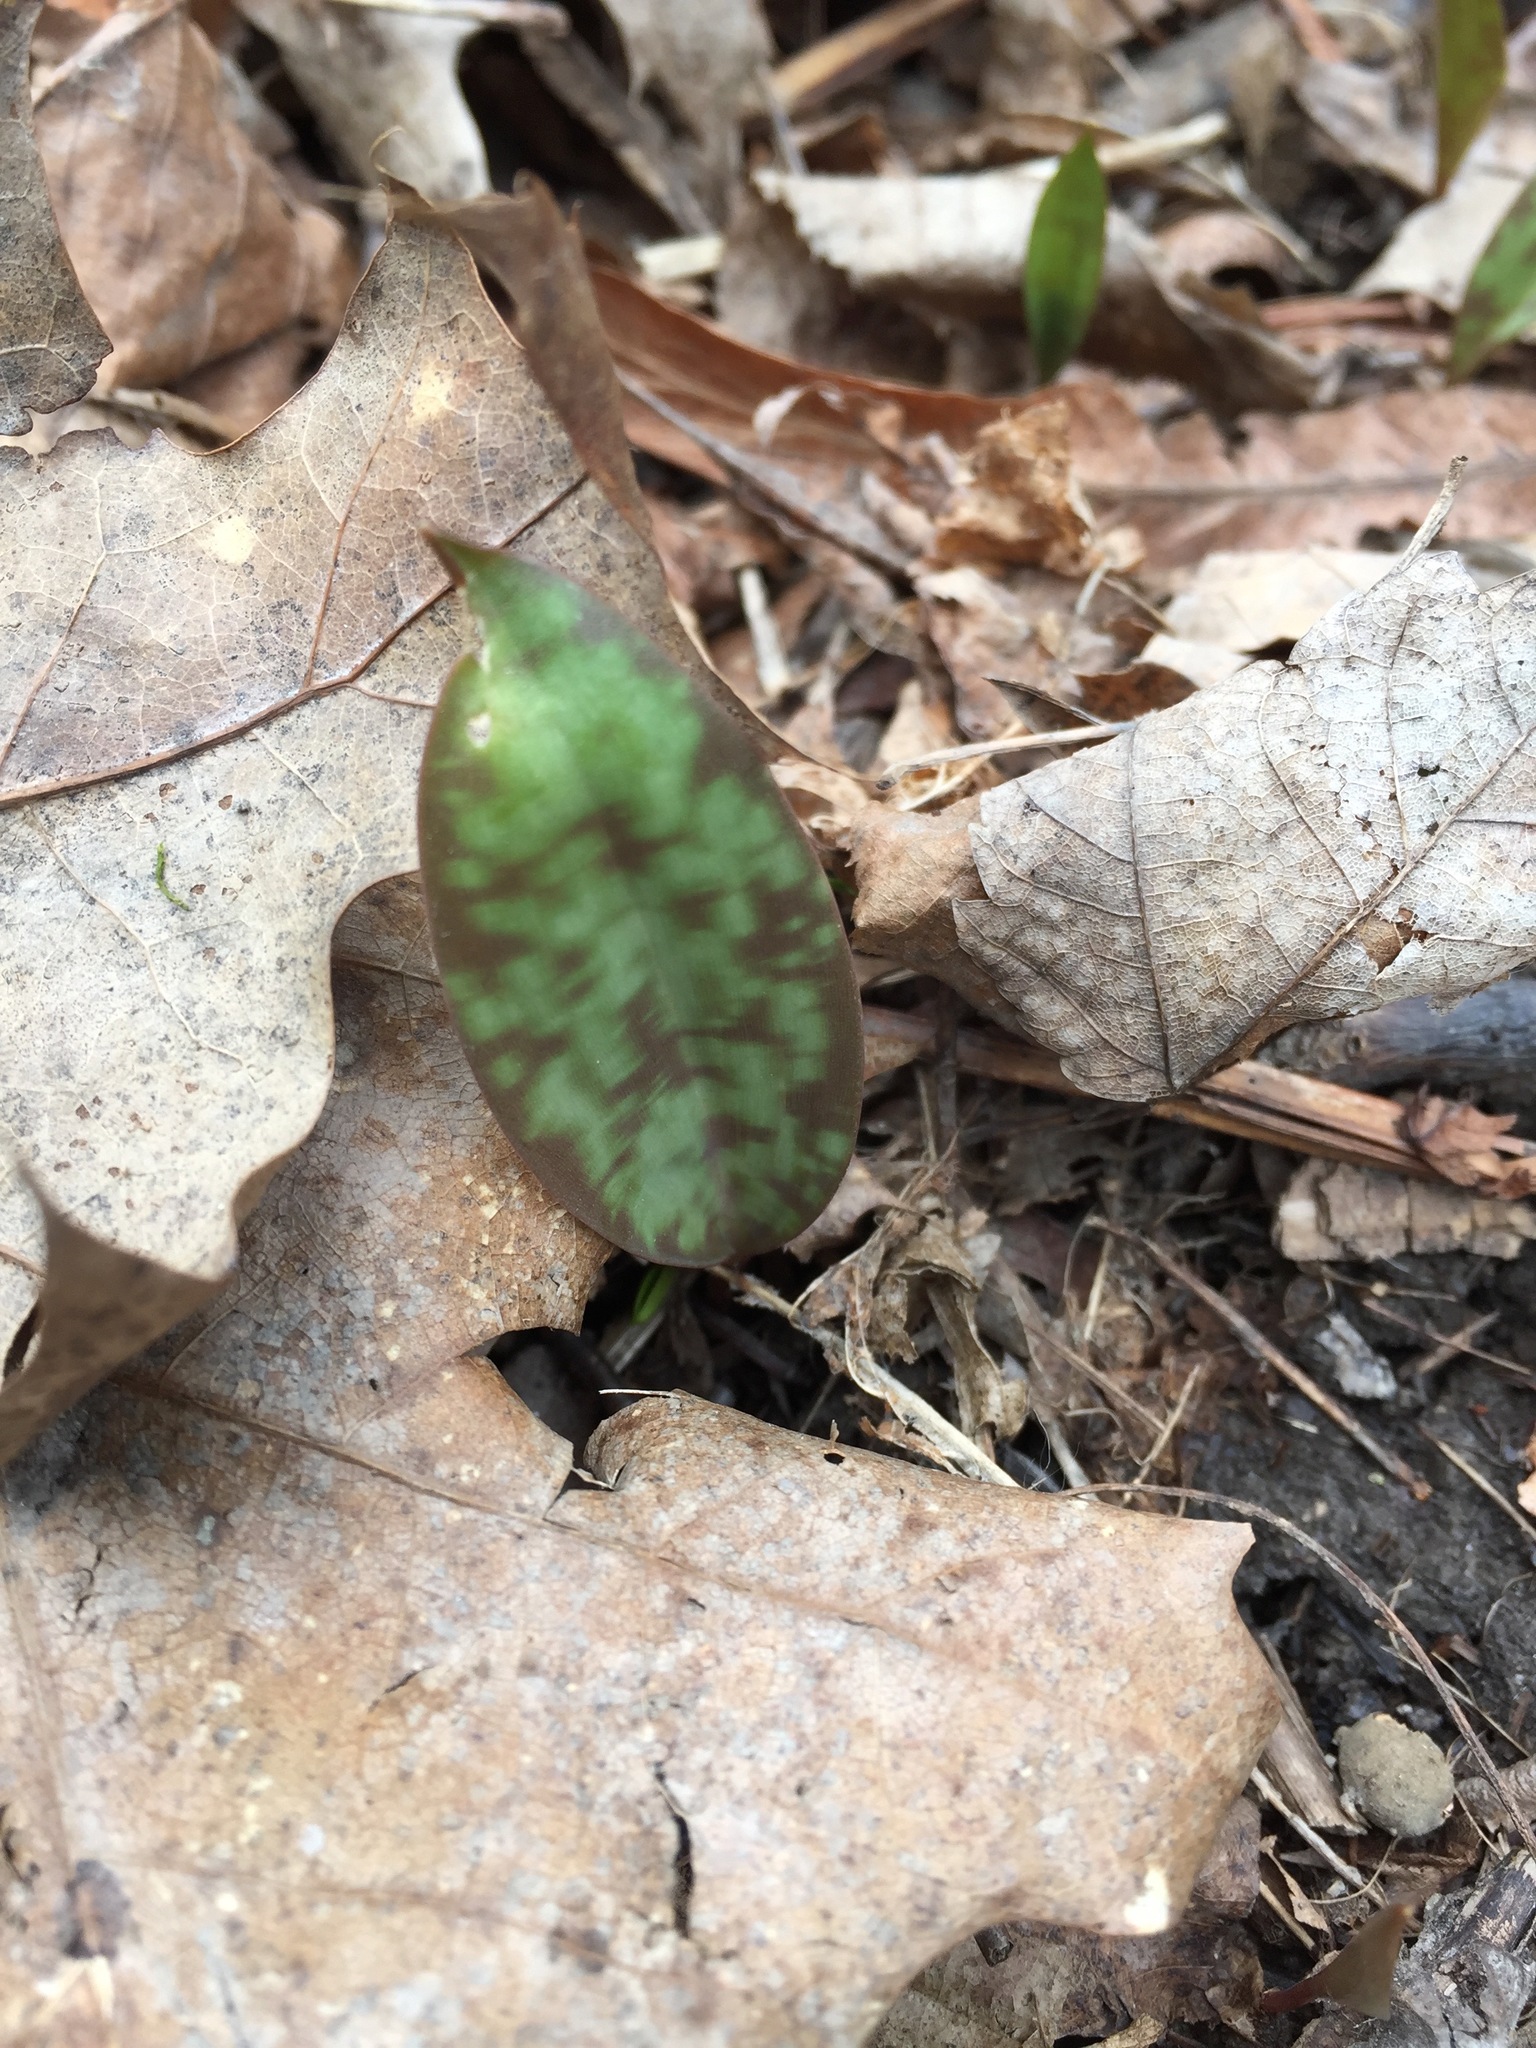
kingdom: Plantae
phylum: Tracheophyta
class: Liliopsida
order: Liliales
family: Liliaceae
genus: Erythronium
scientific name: Erythronium americanum
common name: Yellow adder's-tongue
